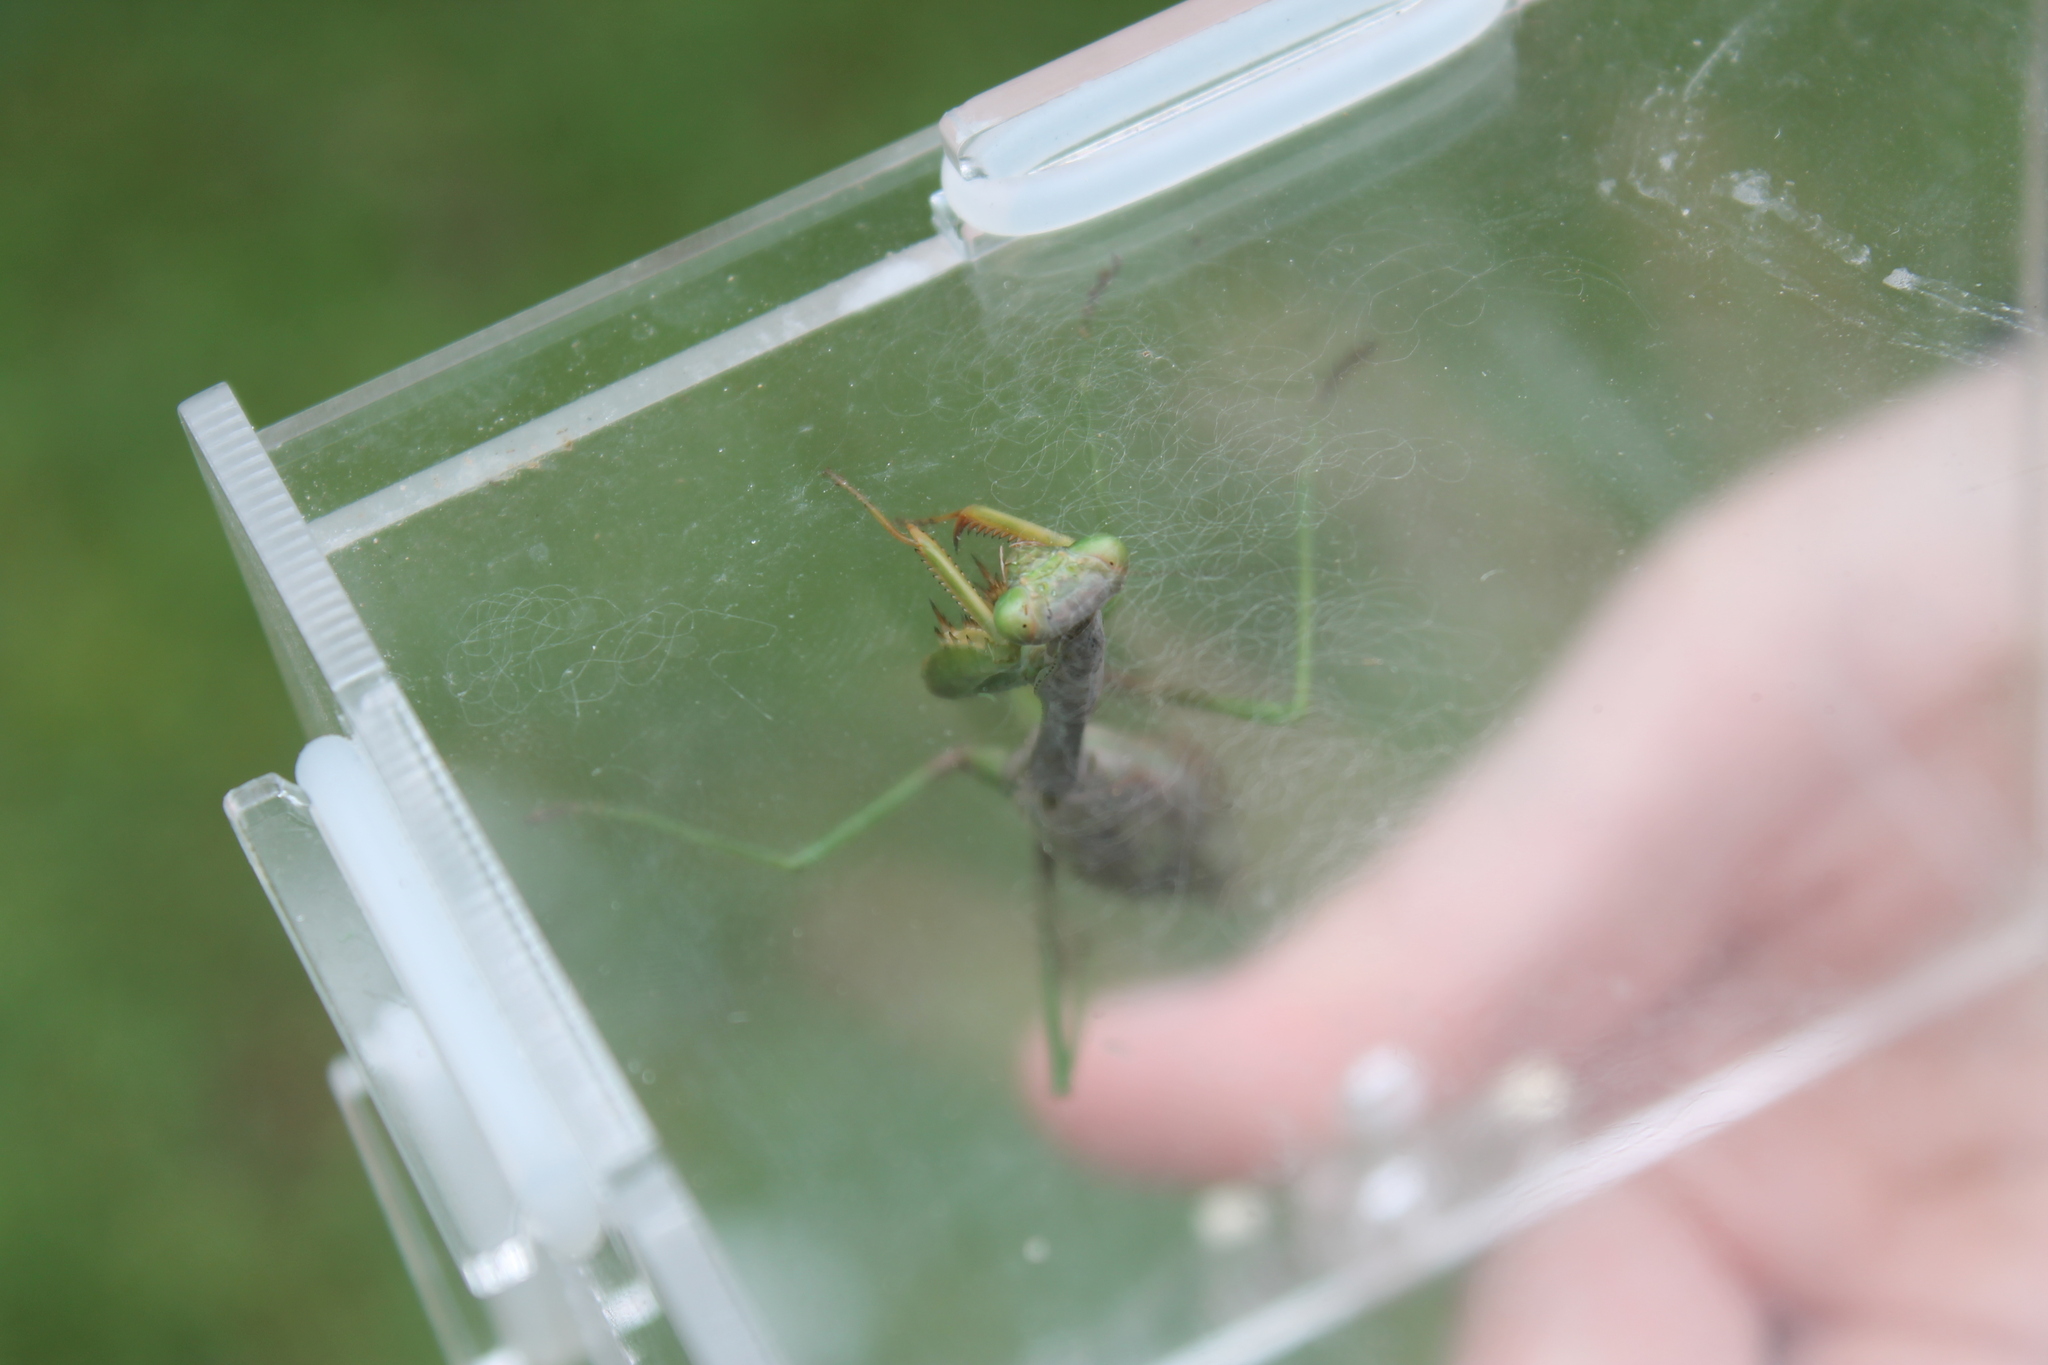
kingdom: Animalia
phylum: Arthropoda
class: Insecta
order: Mantodea
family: Mantidae
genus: Stagmomantis
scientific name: Stagmomantis carolina
